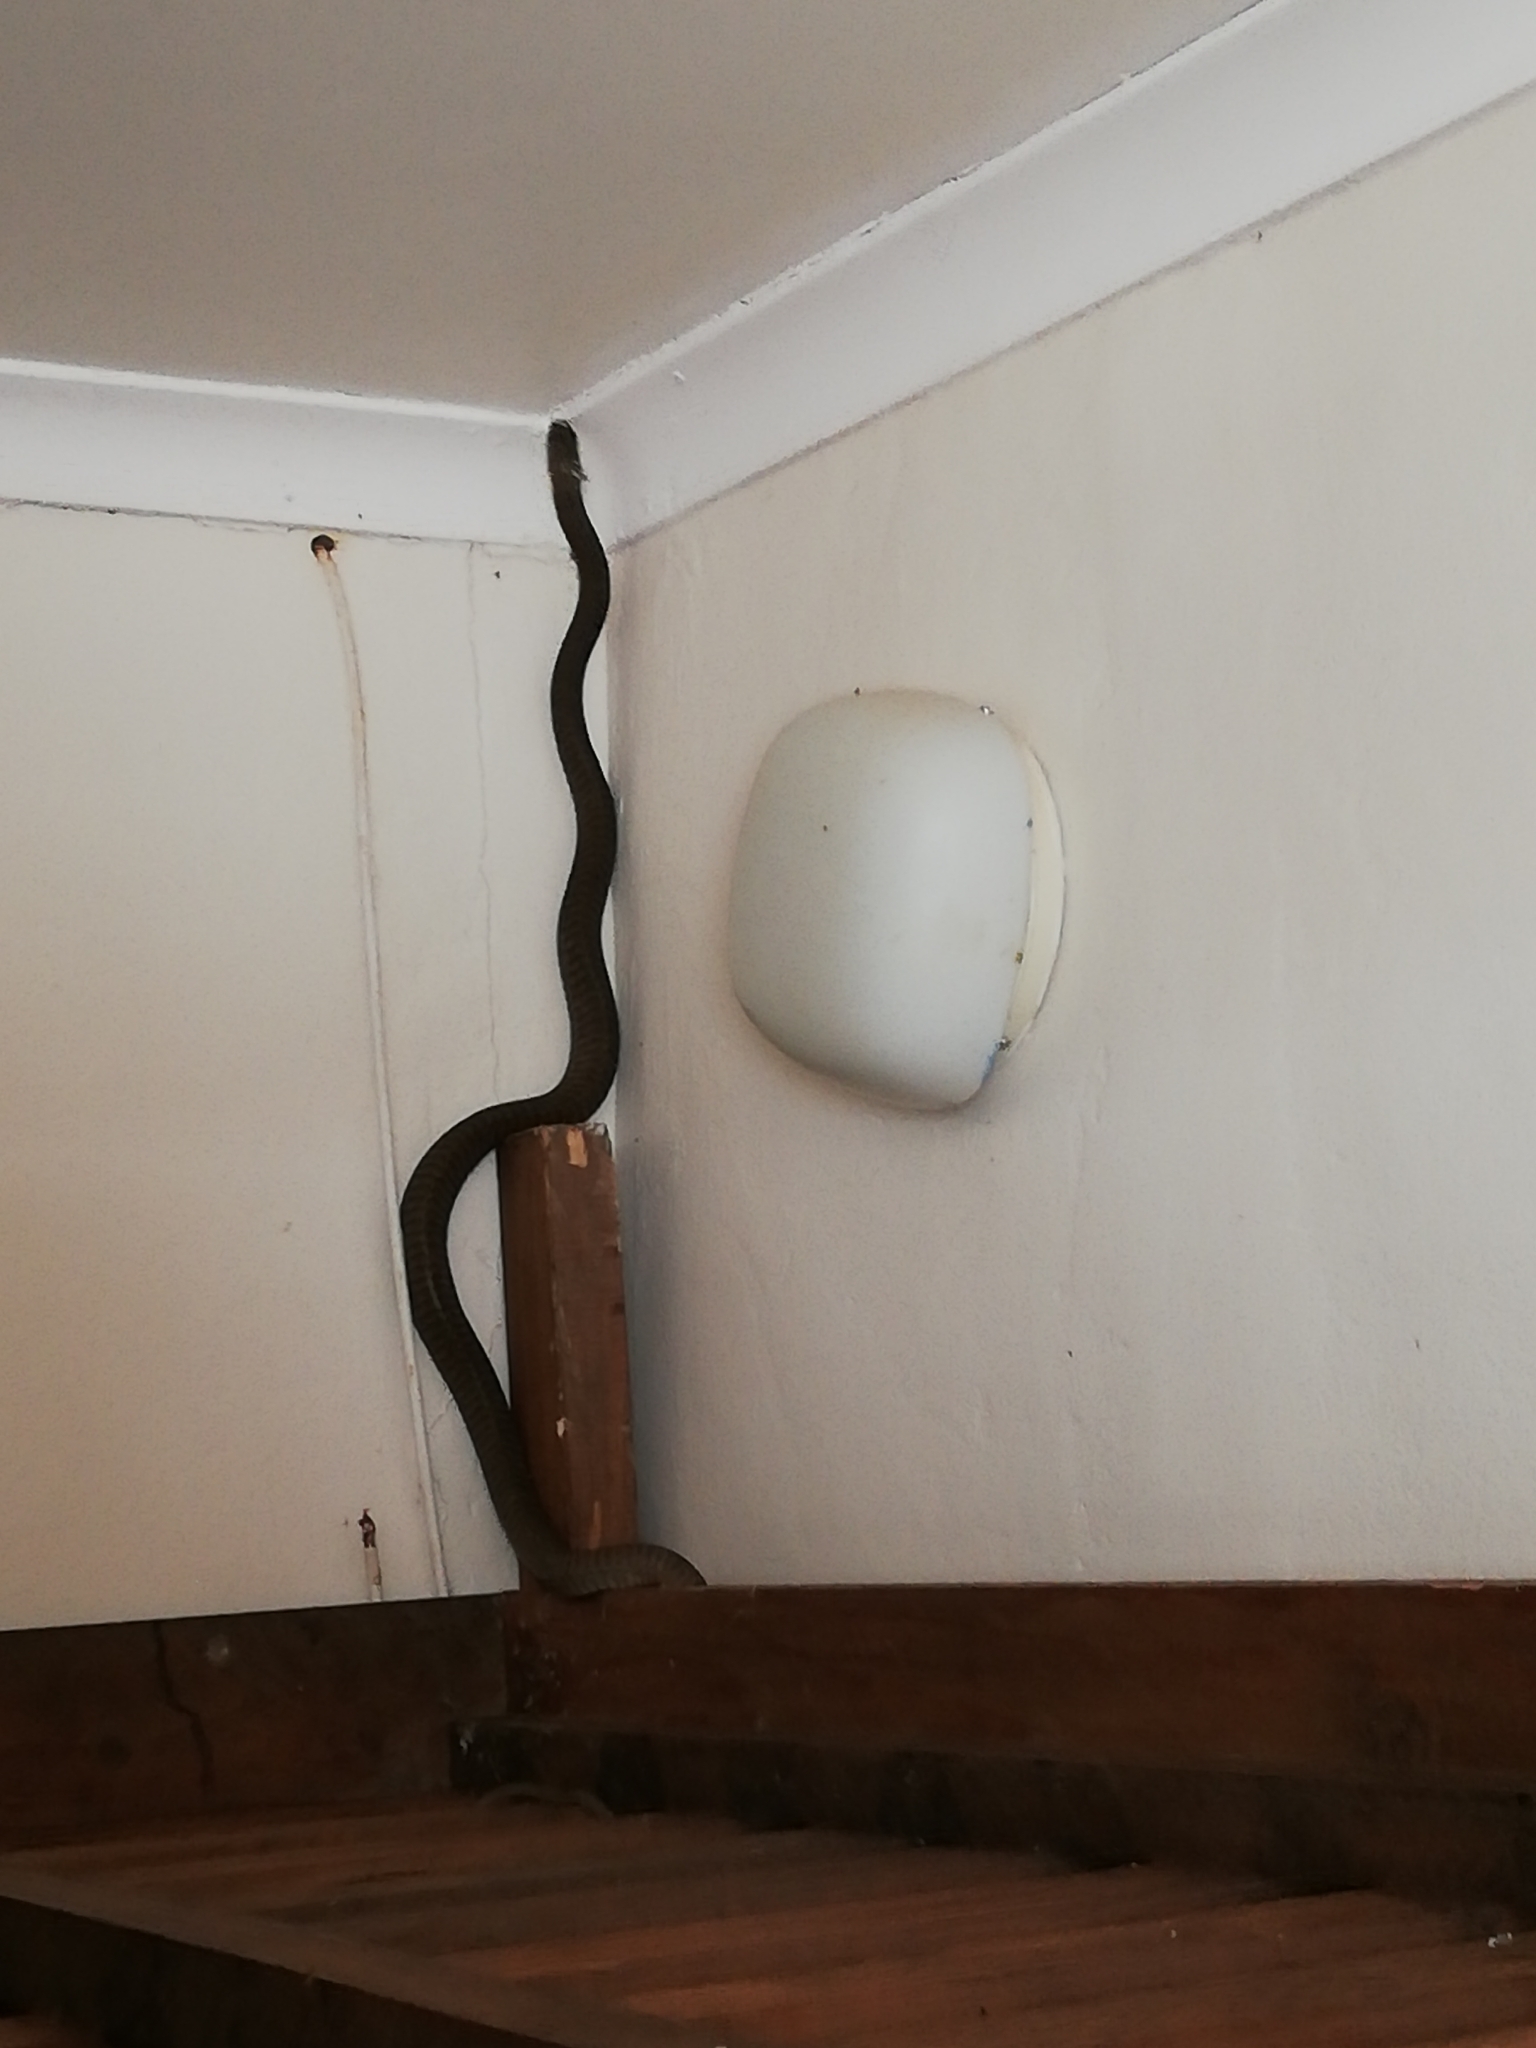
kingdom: Animalia
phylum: Chordata
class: Squamata
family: Colubridae
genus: Dispholidus
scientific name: Dispholidus typus
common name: Boomslang
